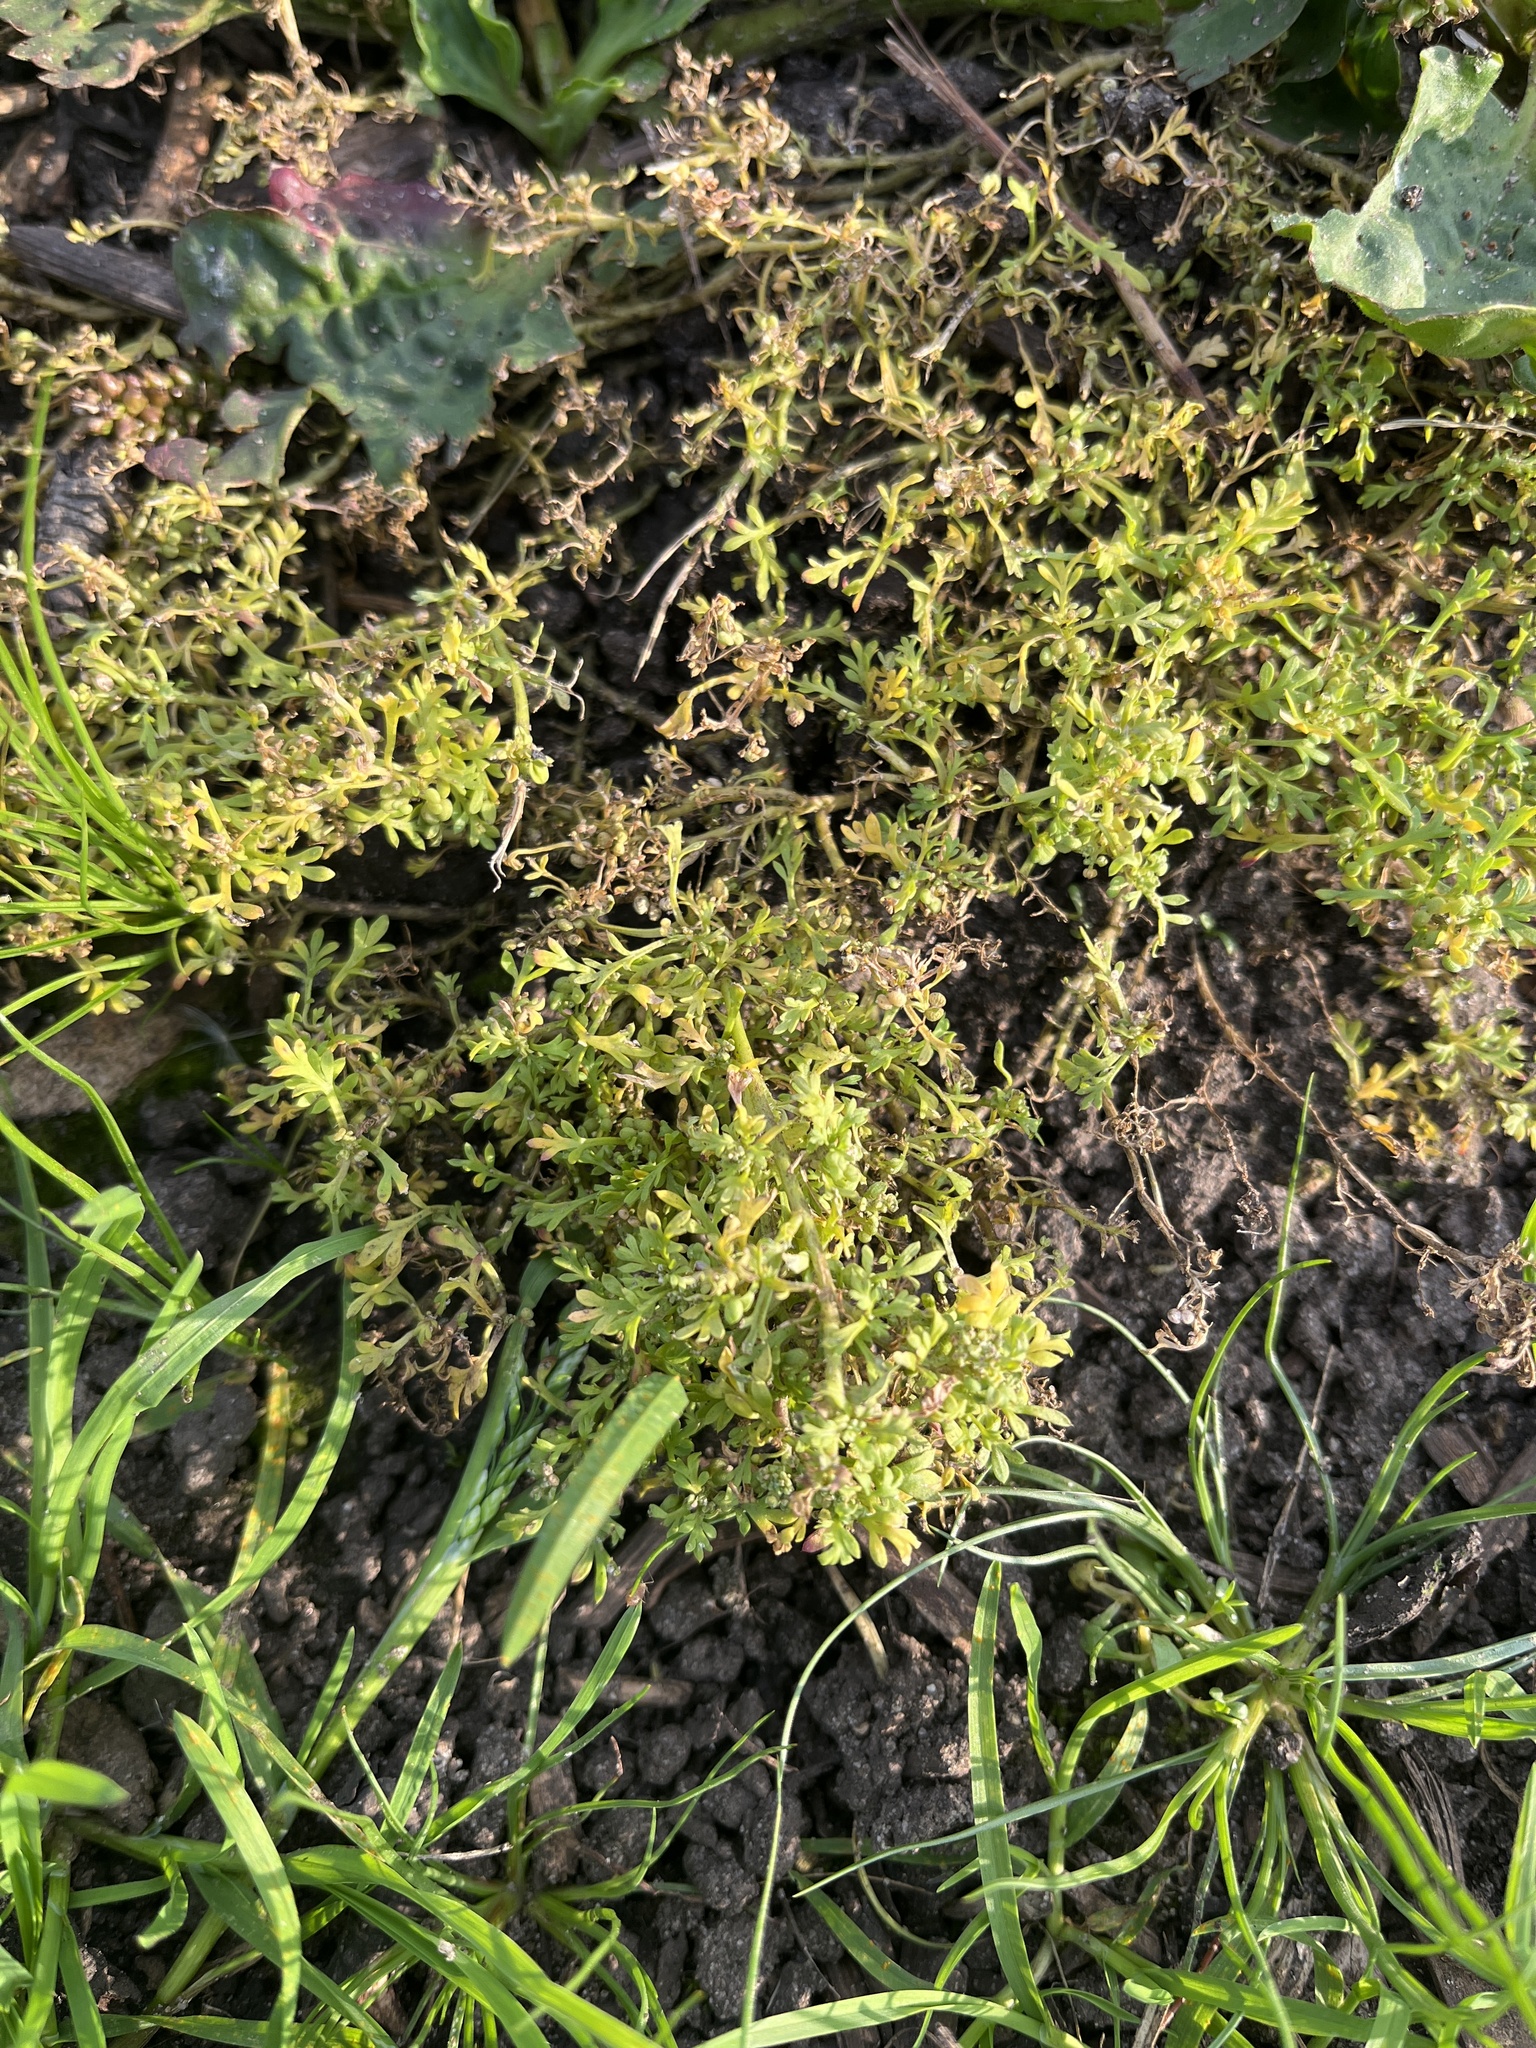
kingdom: Plantae
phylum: Tracheophyta
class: Magnoliopsida
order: Brassicales
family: Brassicaceae
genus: Lepidium
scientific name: Lepidium didymum
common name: Lesser swinecress
